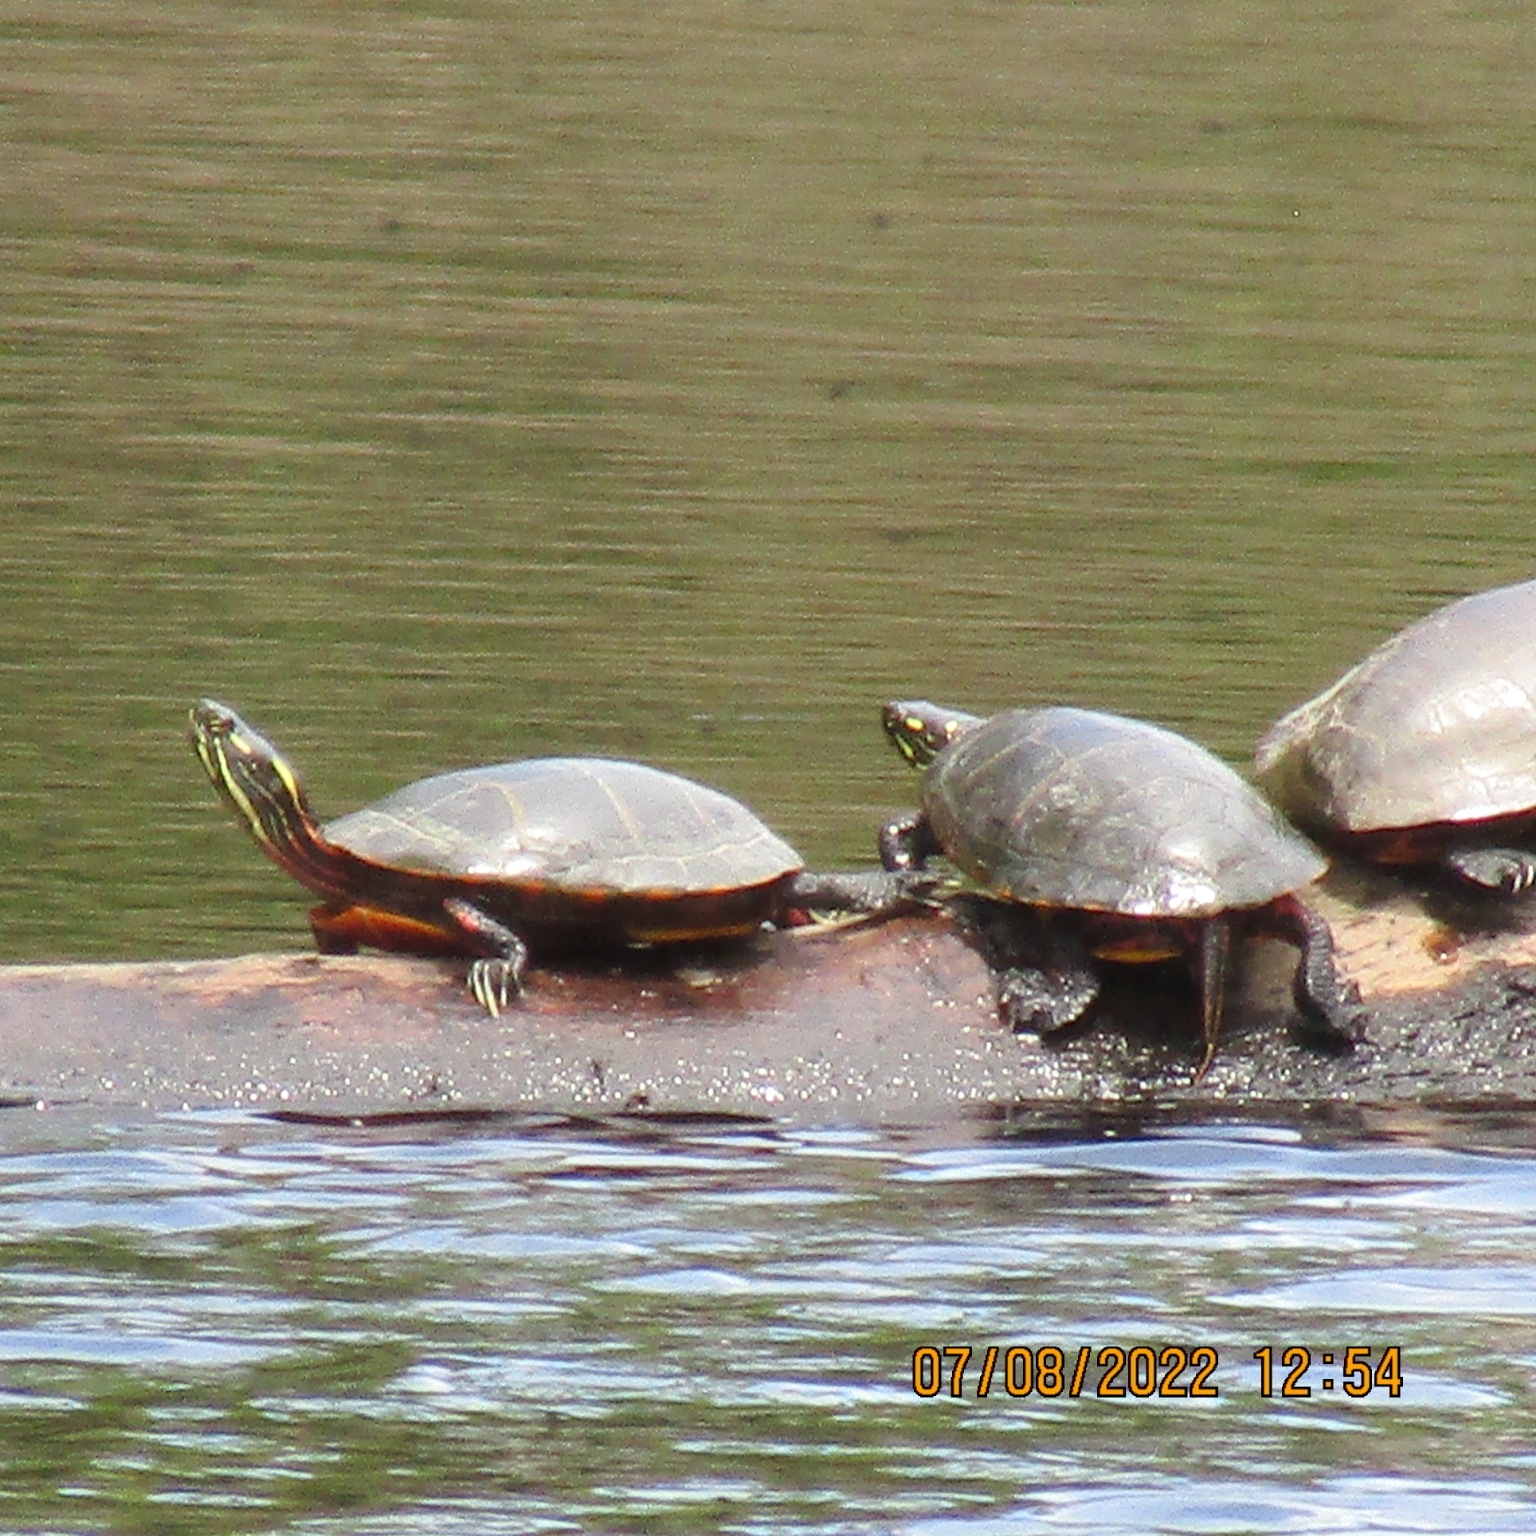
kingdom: Animalia
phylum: Chordata
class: Testudines
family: Emydidae
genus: Chrysemys
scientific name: Chrysemys picta
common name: Painted turtle
